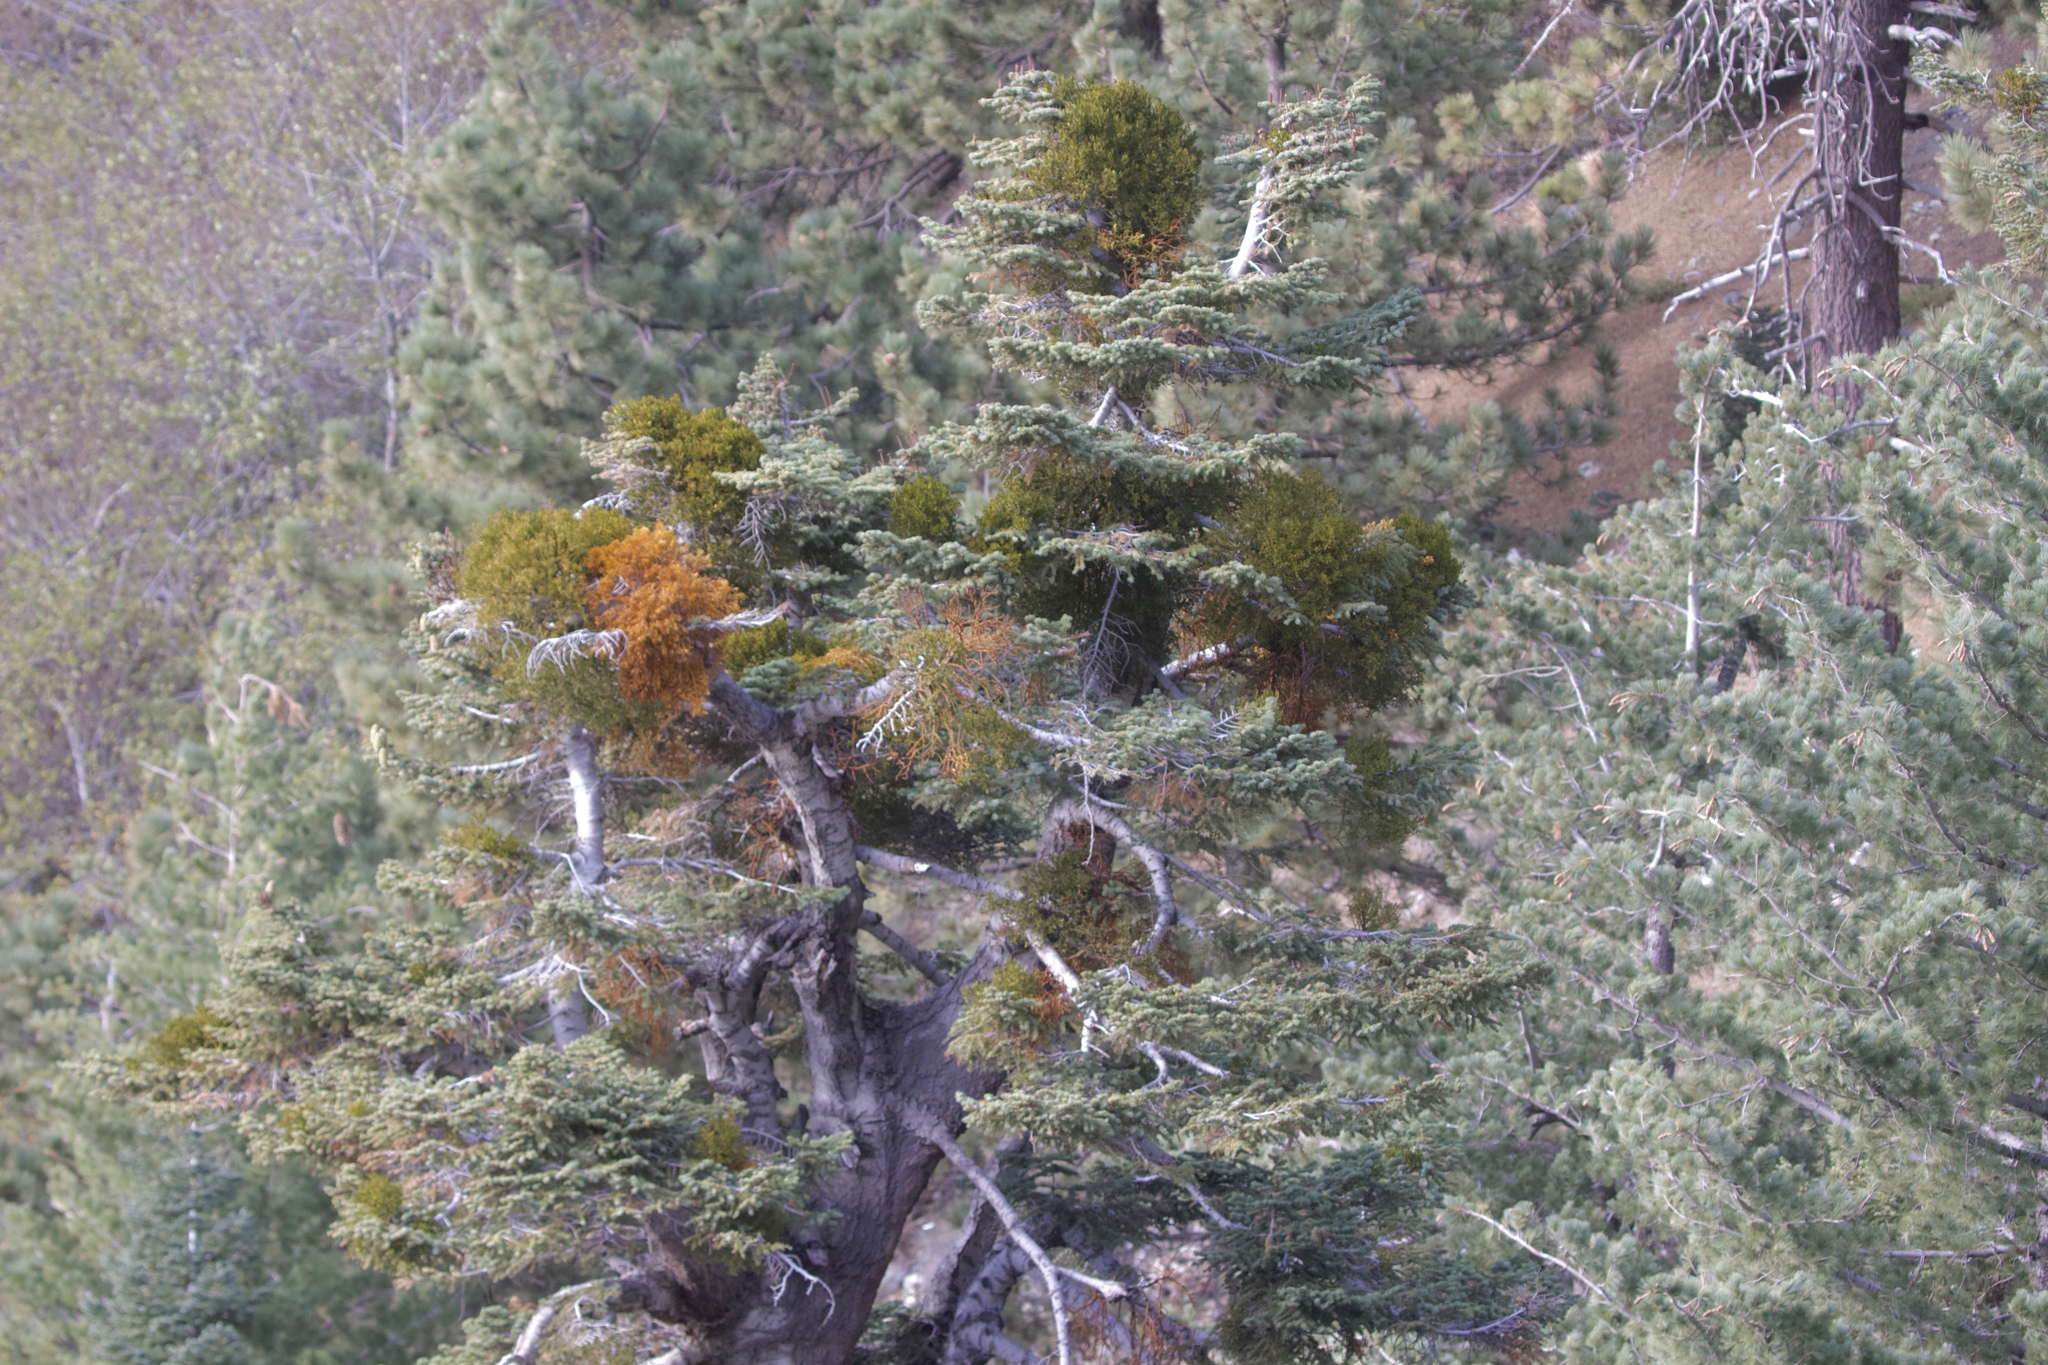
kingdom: Plantae
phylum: Tracheophyta
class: Pinopsida
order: Pinales
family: Pinaceae
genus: Abies
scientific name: Abies concolor
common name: Colorado fir
